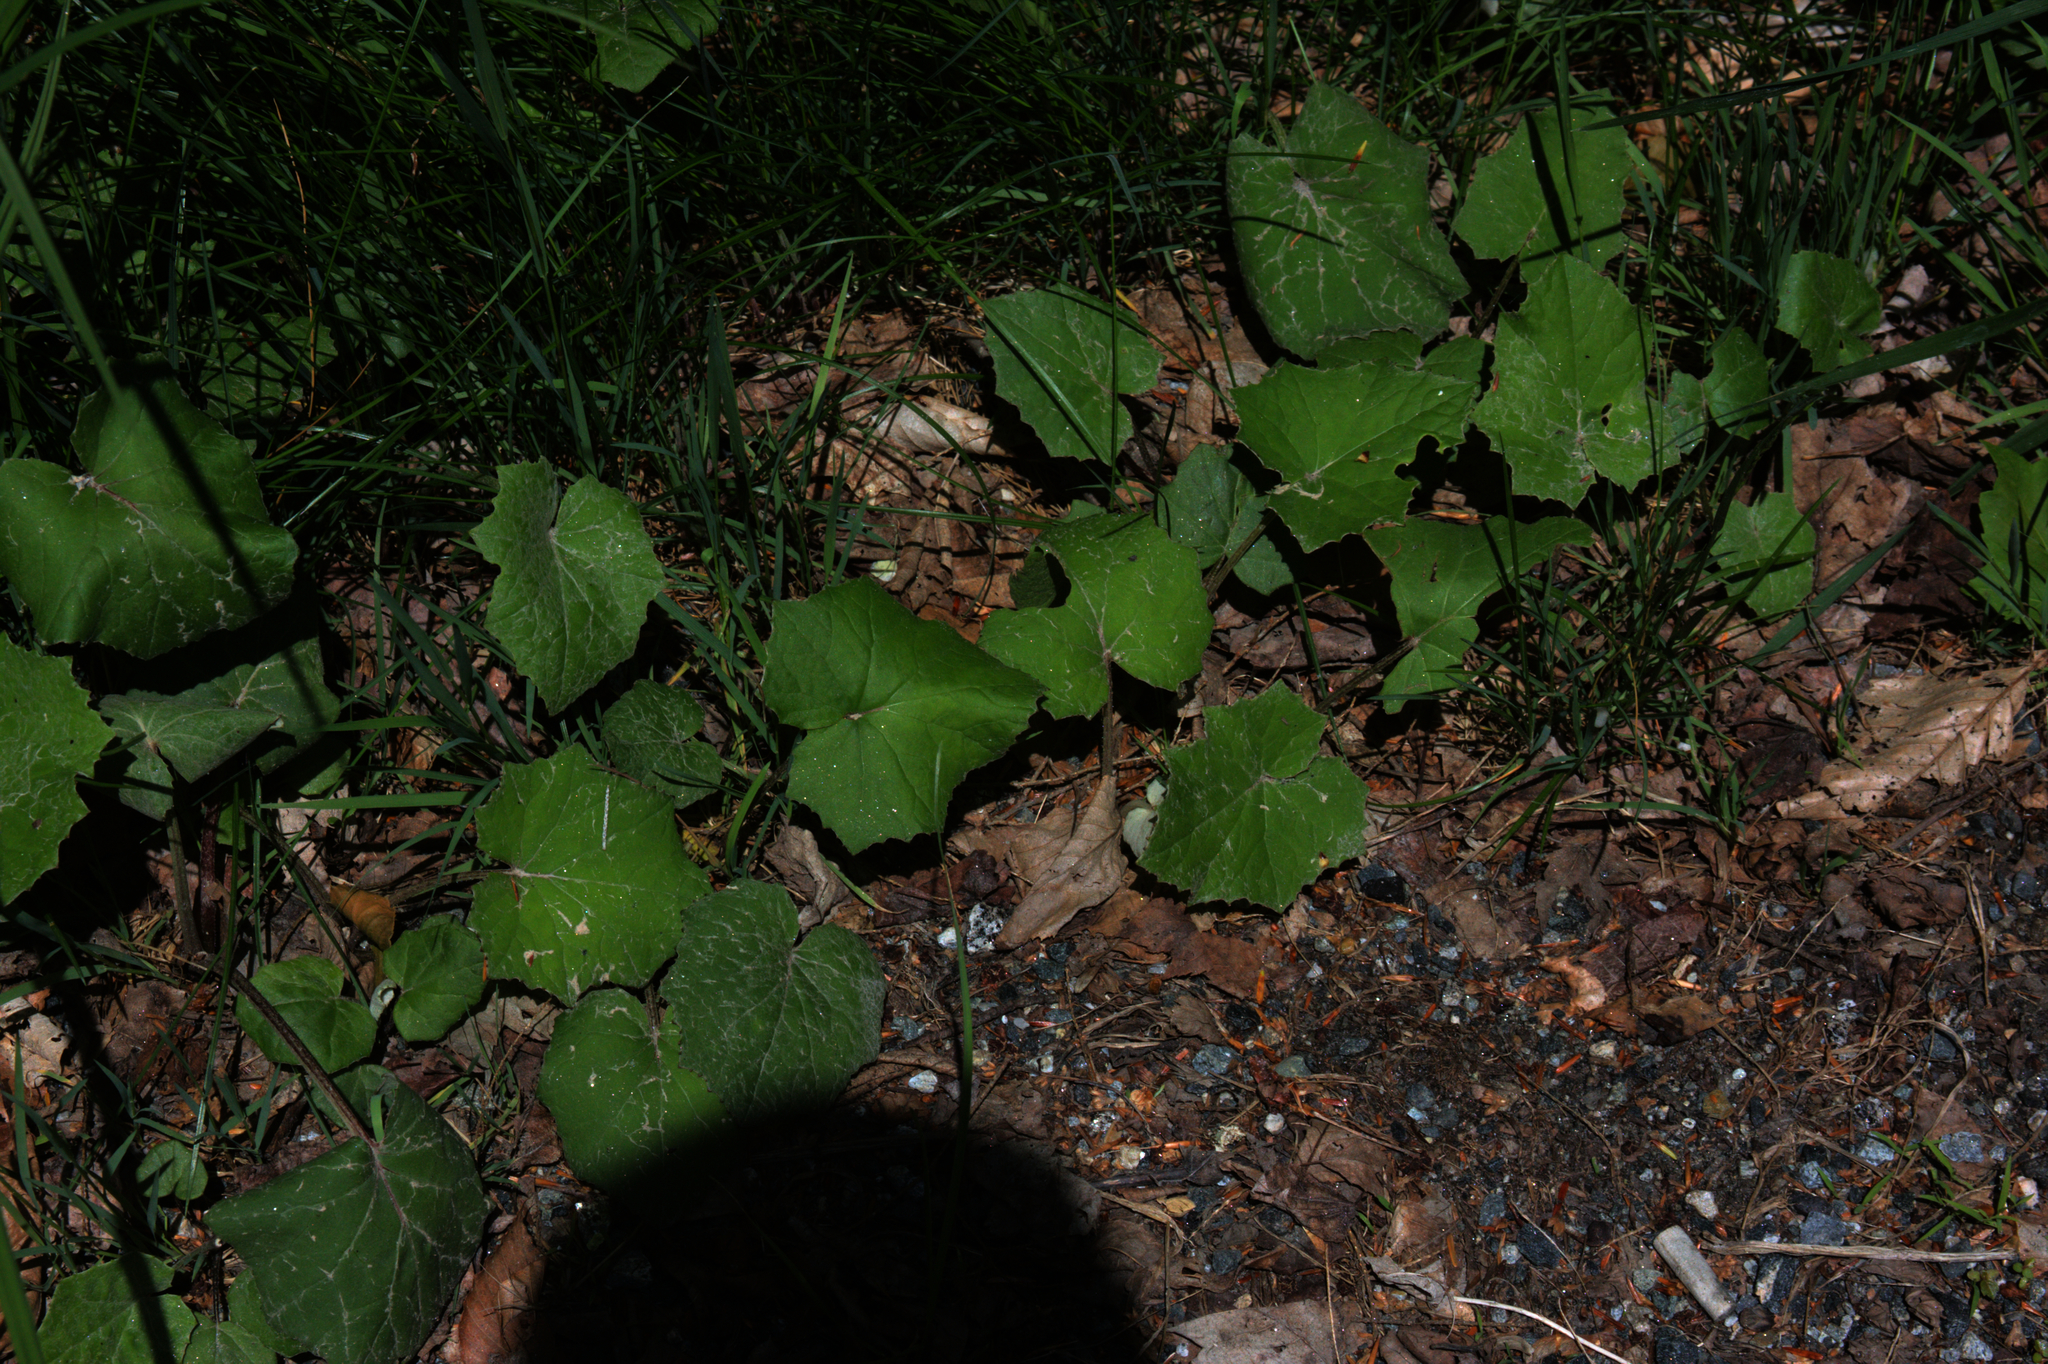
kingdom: Plantae
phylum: Tracheophyta
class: Magnoliopsida
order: Asterales
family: Asteraceae
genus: Tussilago
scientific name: Tussilago farfara
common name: Coltsfoot
